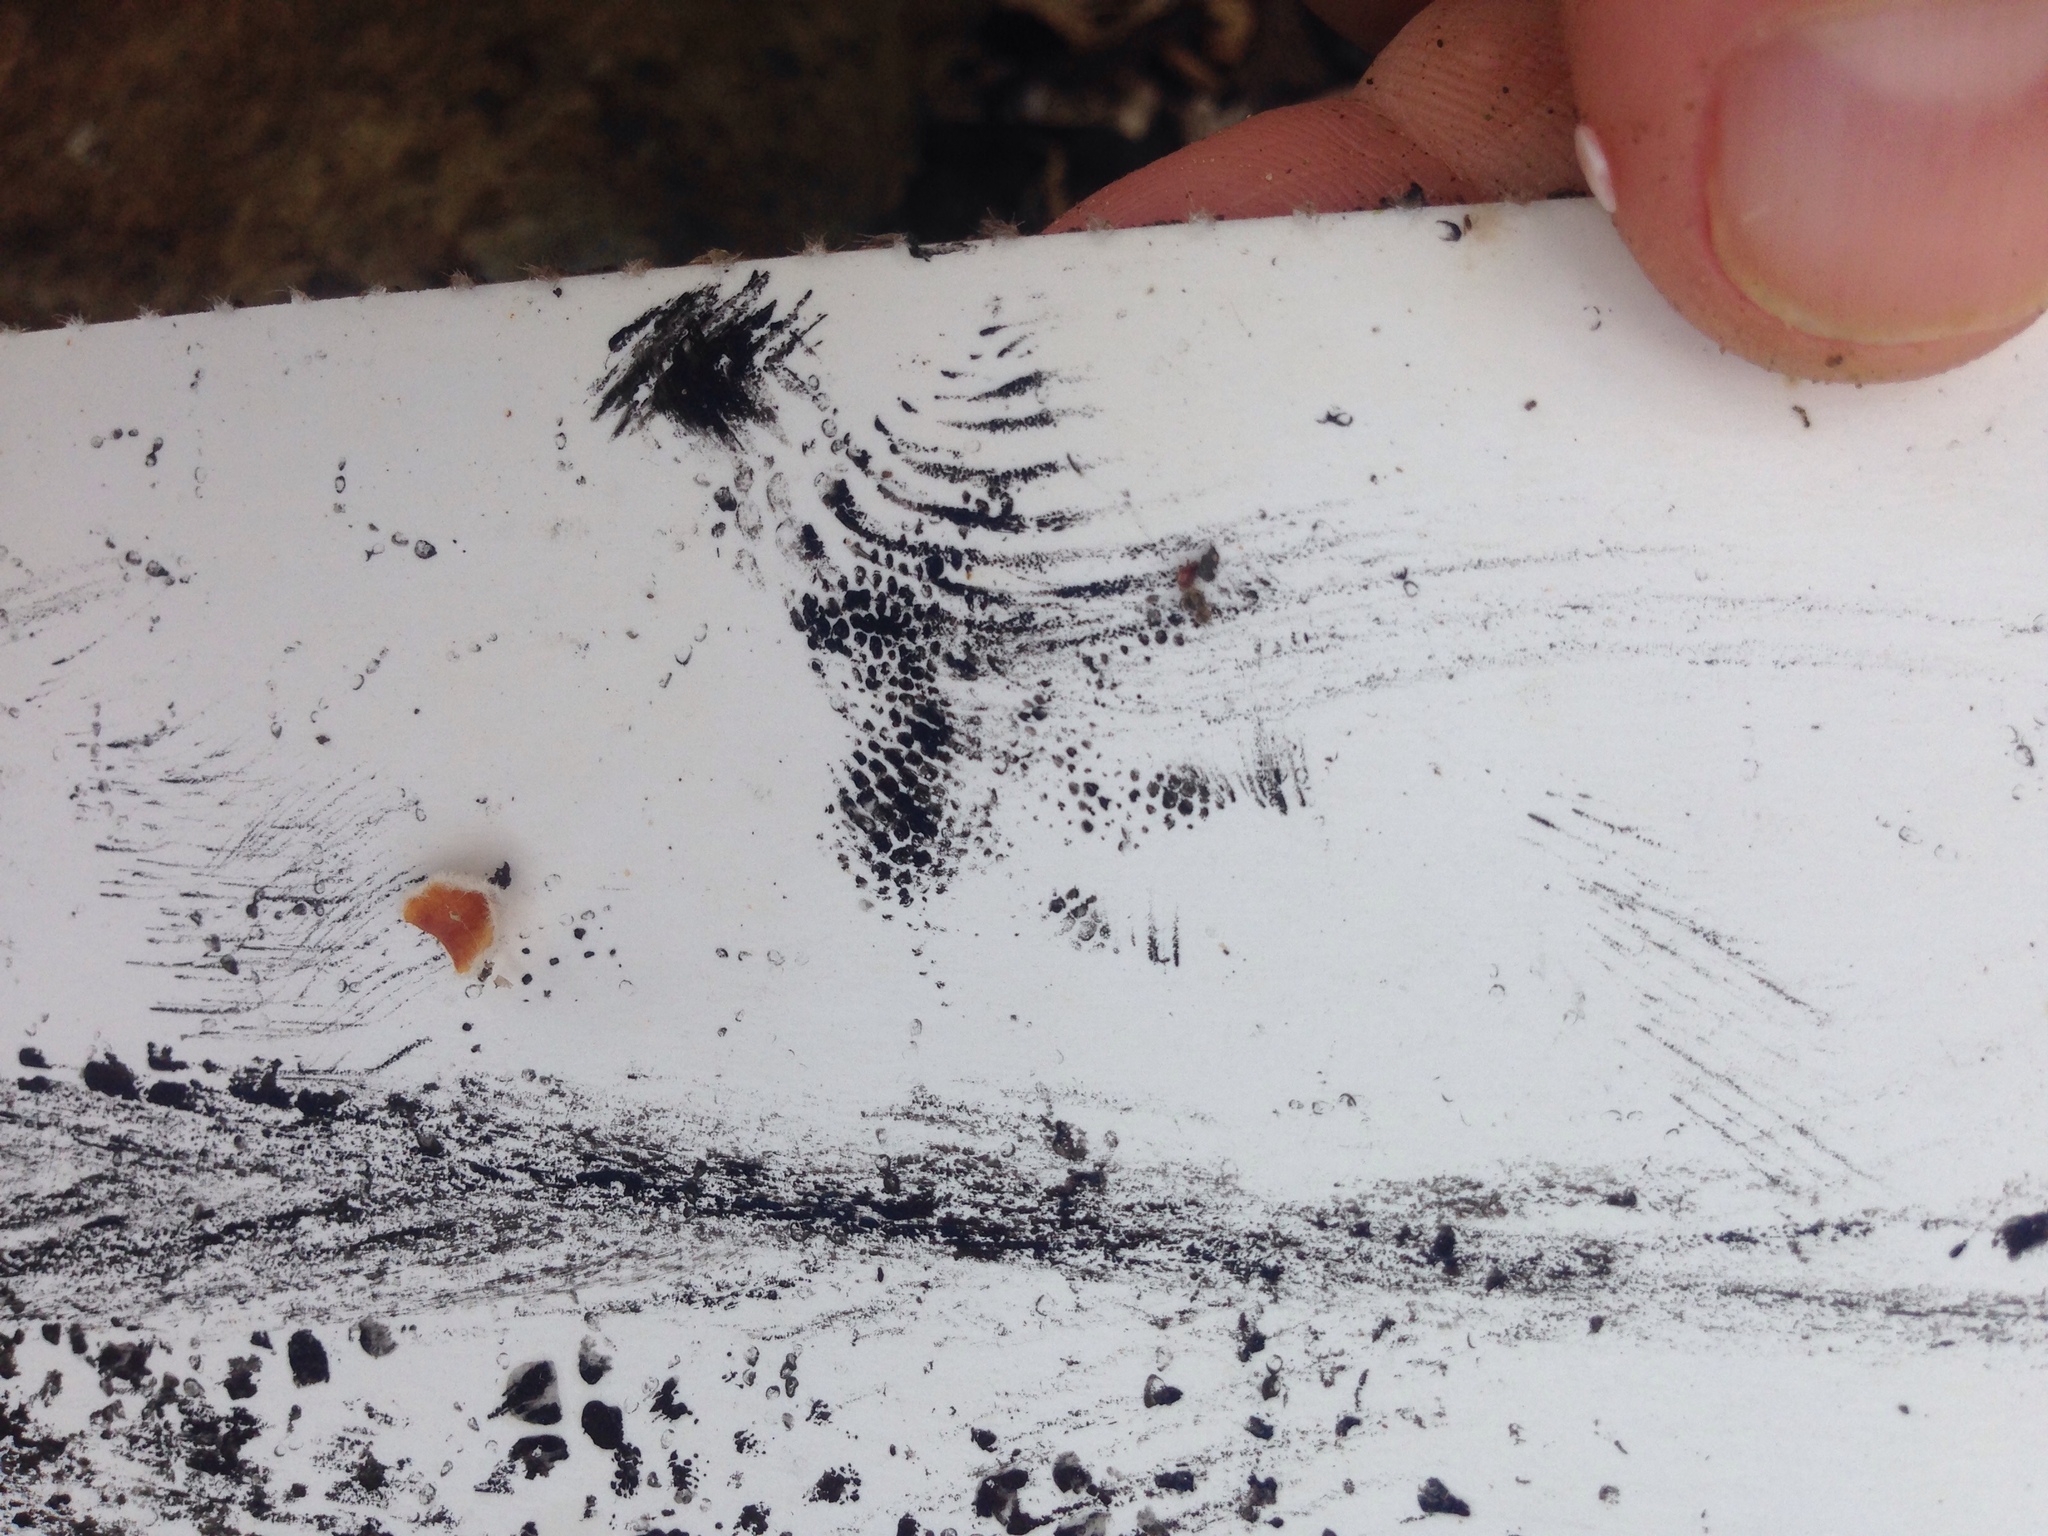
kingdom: Animalia
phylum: Chordata
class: Sphenodontia
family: Sphenodontidae
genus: Sphenodon
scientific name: Sphenodon punctatus
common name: Tuatara
